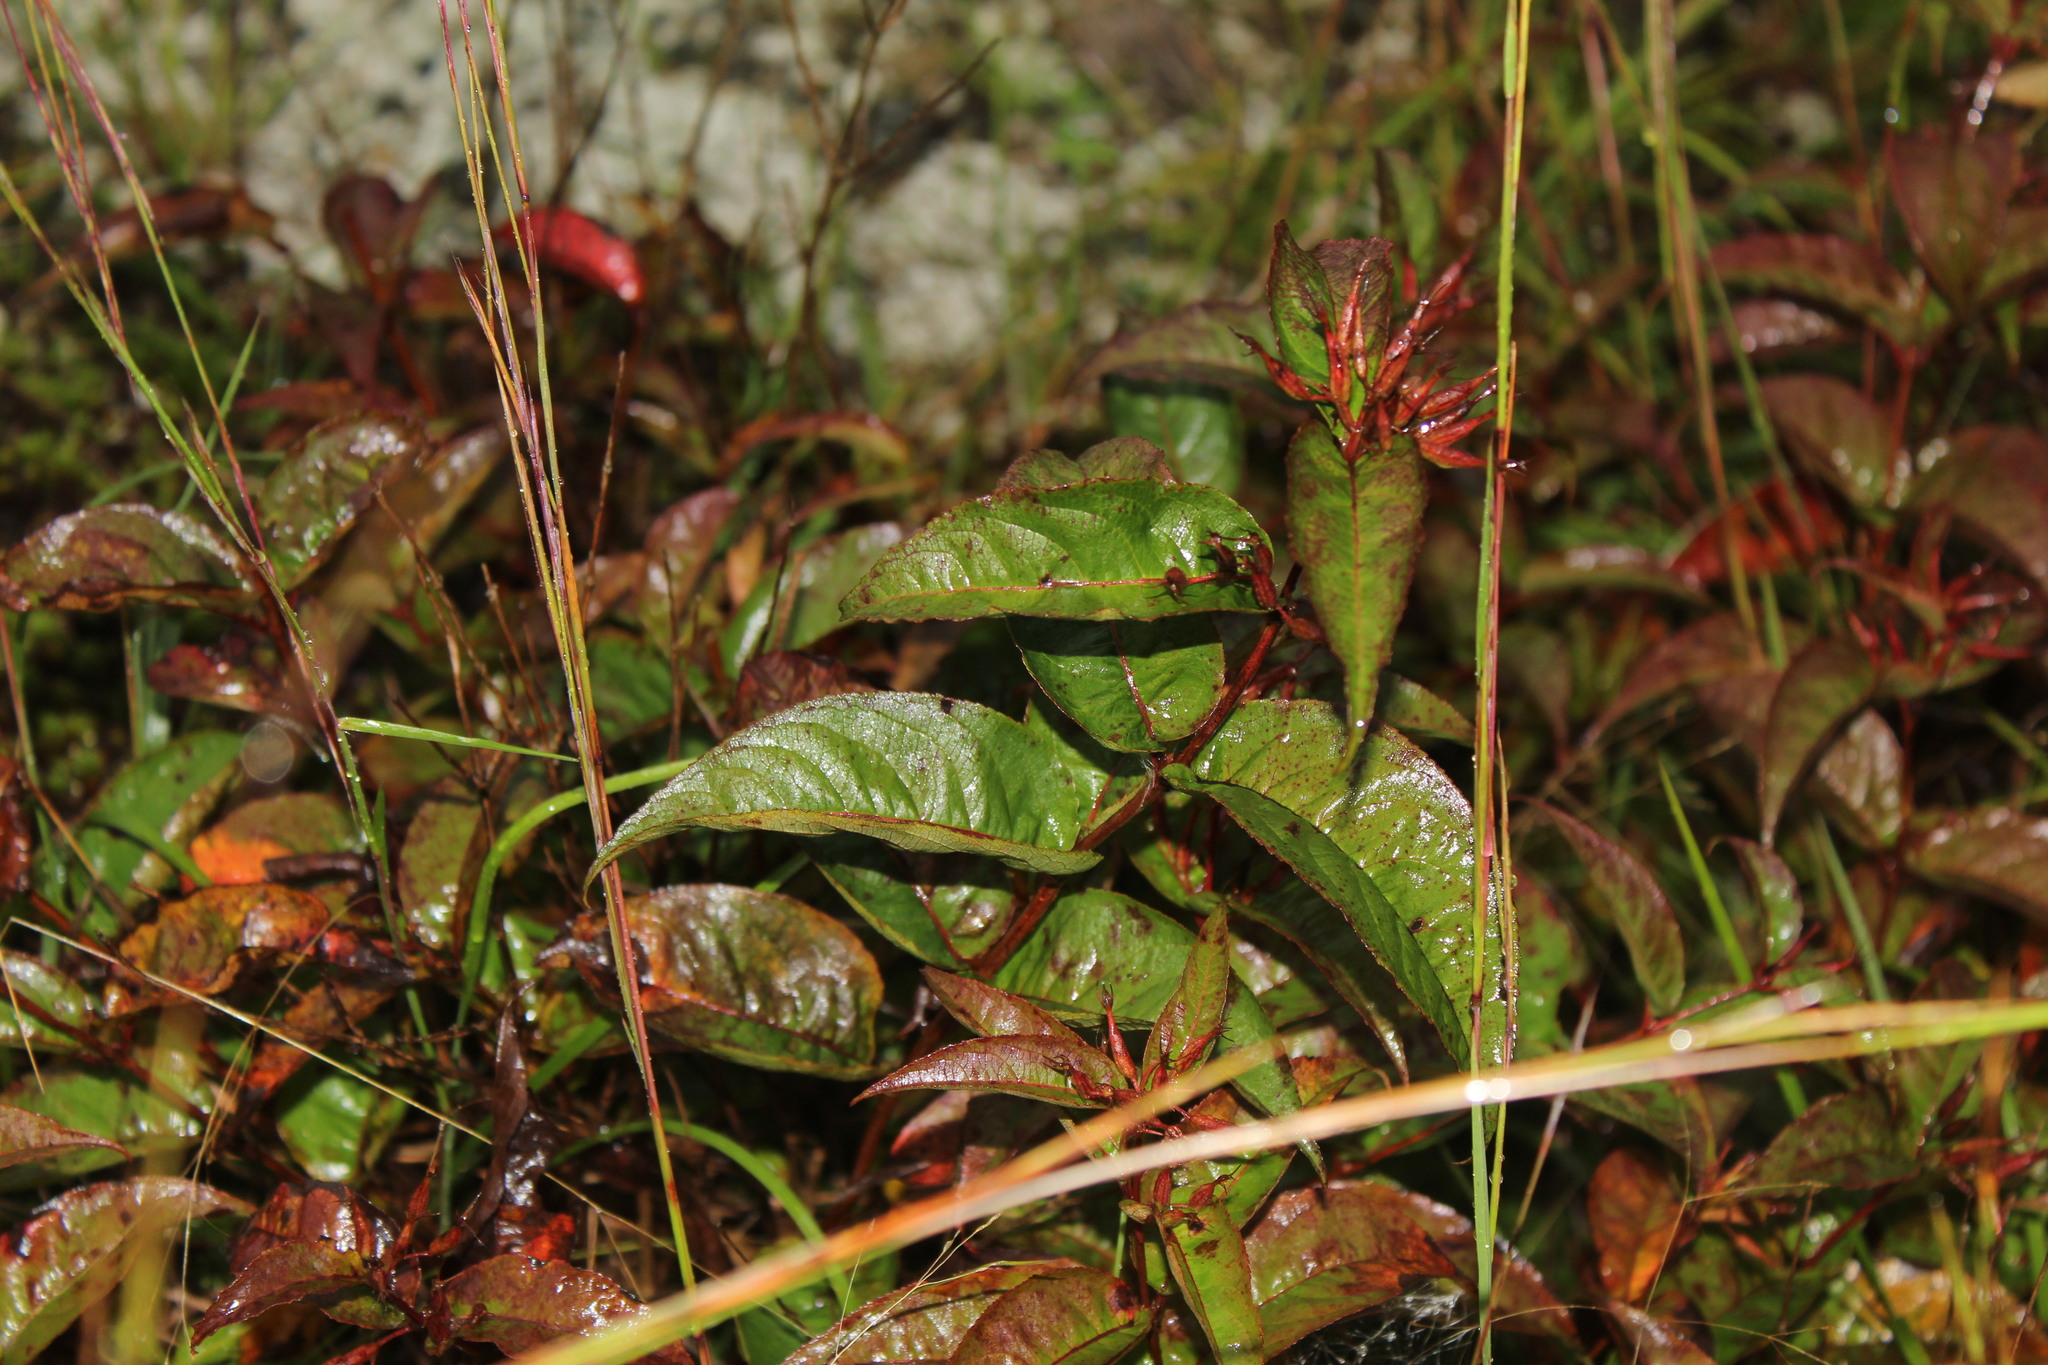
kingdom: Plantae
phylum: Tracheophyta
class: Magnoliopsida
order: Dipsacales
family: Caprifoliaceae
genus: Diervilla
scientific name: Diervilla lonicera
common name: Bush-honeysuckle
